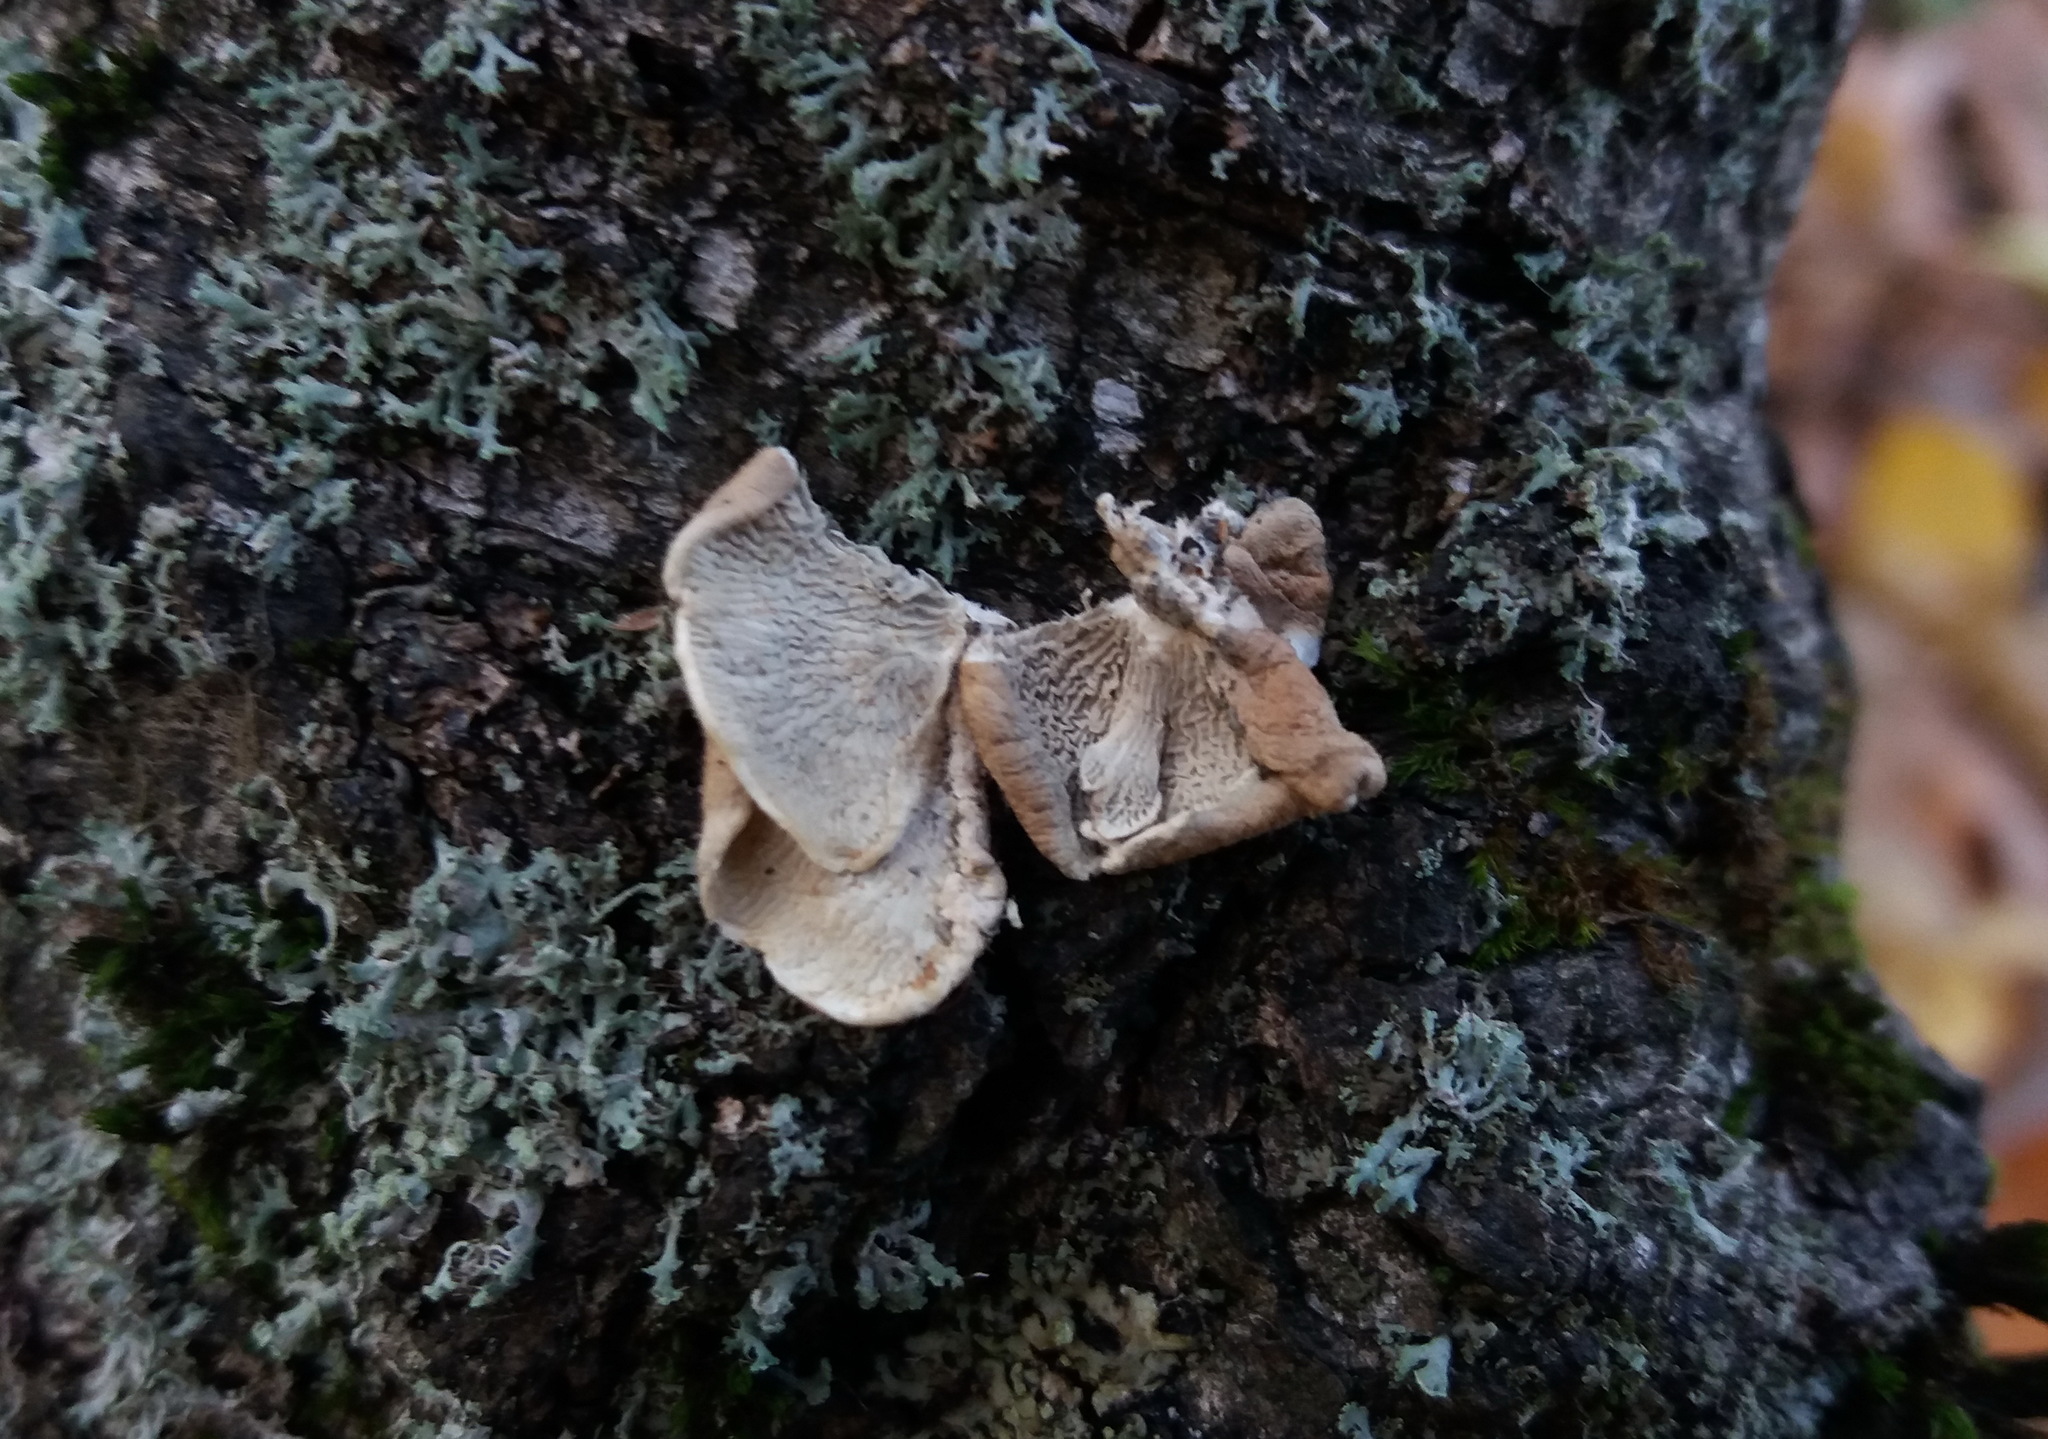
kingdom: Fungi
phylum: Basidiomycota
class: Agaricomycetes
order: Amylocorticiales
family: Amylocorticiaceae
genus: Plicaturopsis
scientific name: Plicaturopsis crispa
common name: Crimped gill
